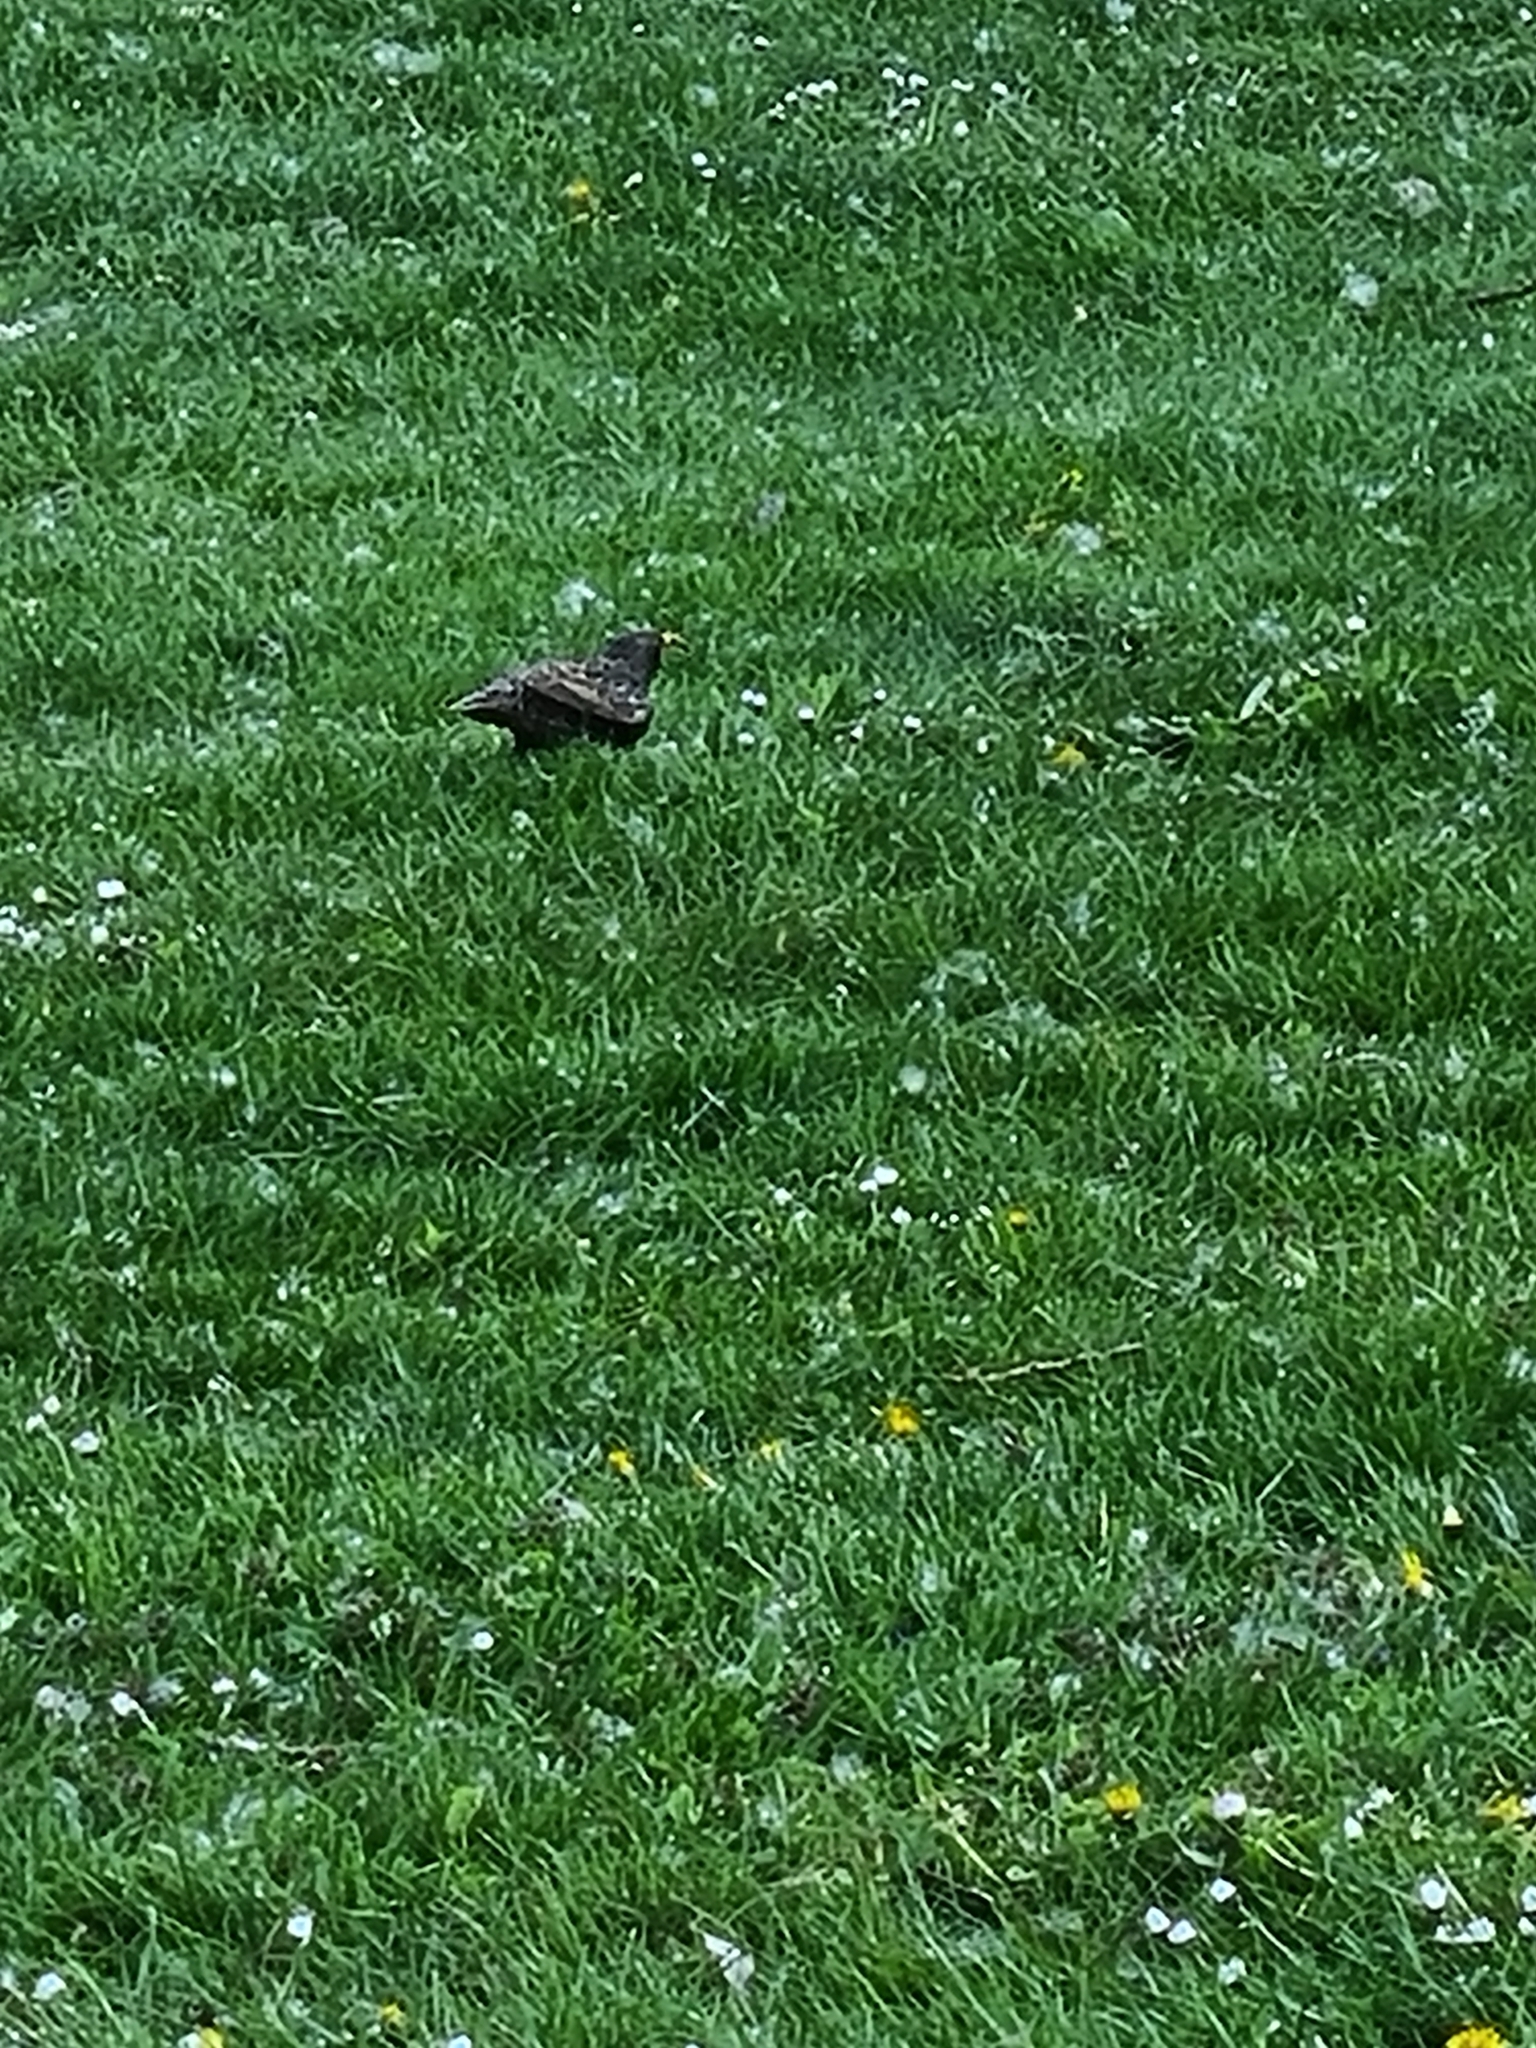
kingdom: Animalia
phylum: Chordata
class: Aves
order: Passeriformes
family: Sturnidae
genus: Sturnus
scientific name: Sturnus vulgaris
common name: Common starling
